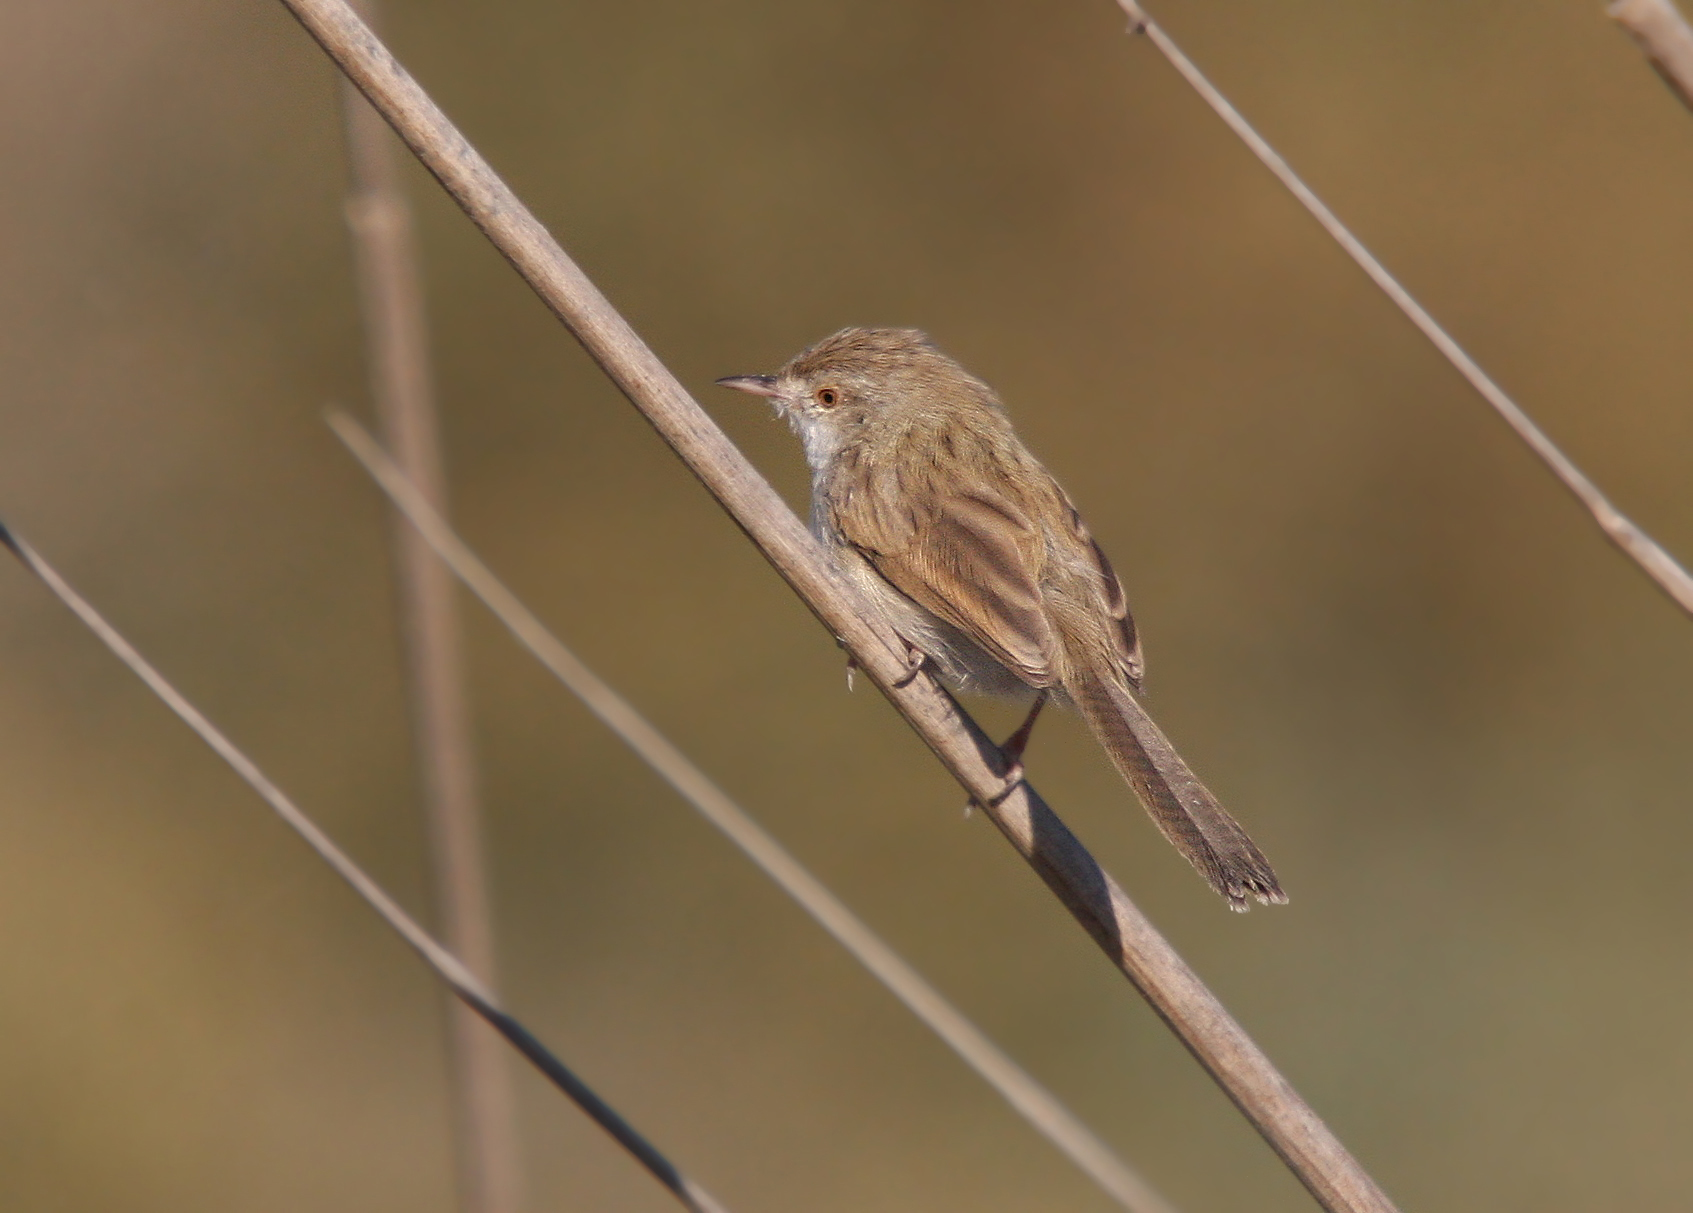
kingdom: Animalia
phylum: Chordata
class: Aves
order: Passeriformes
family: Cisticolidae
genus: Prinia
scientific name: Prinia lepida
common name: Delicate prinia
